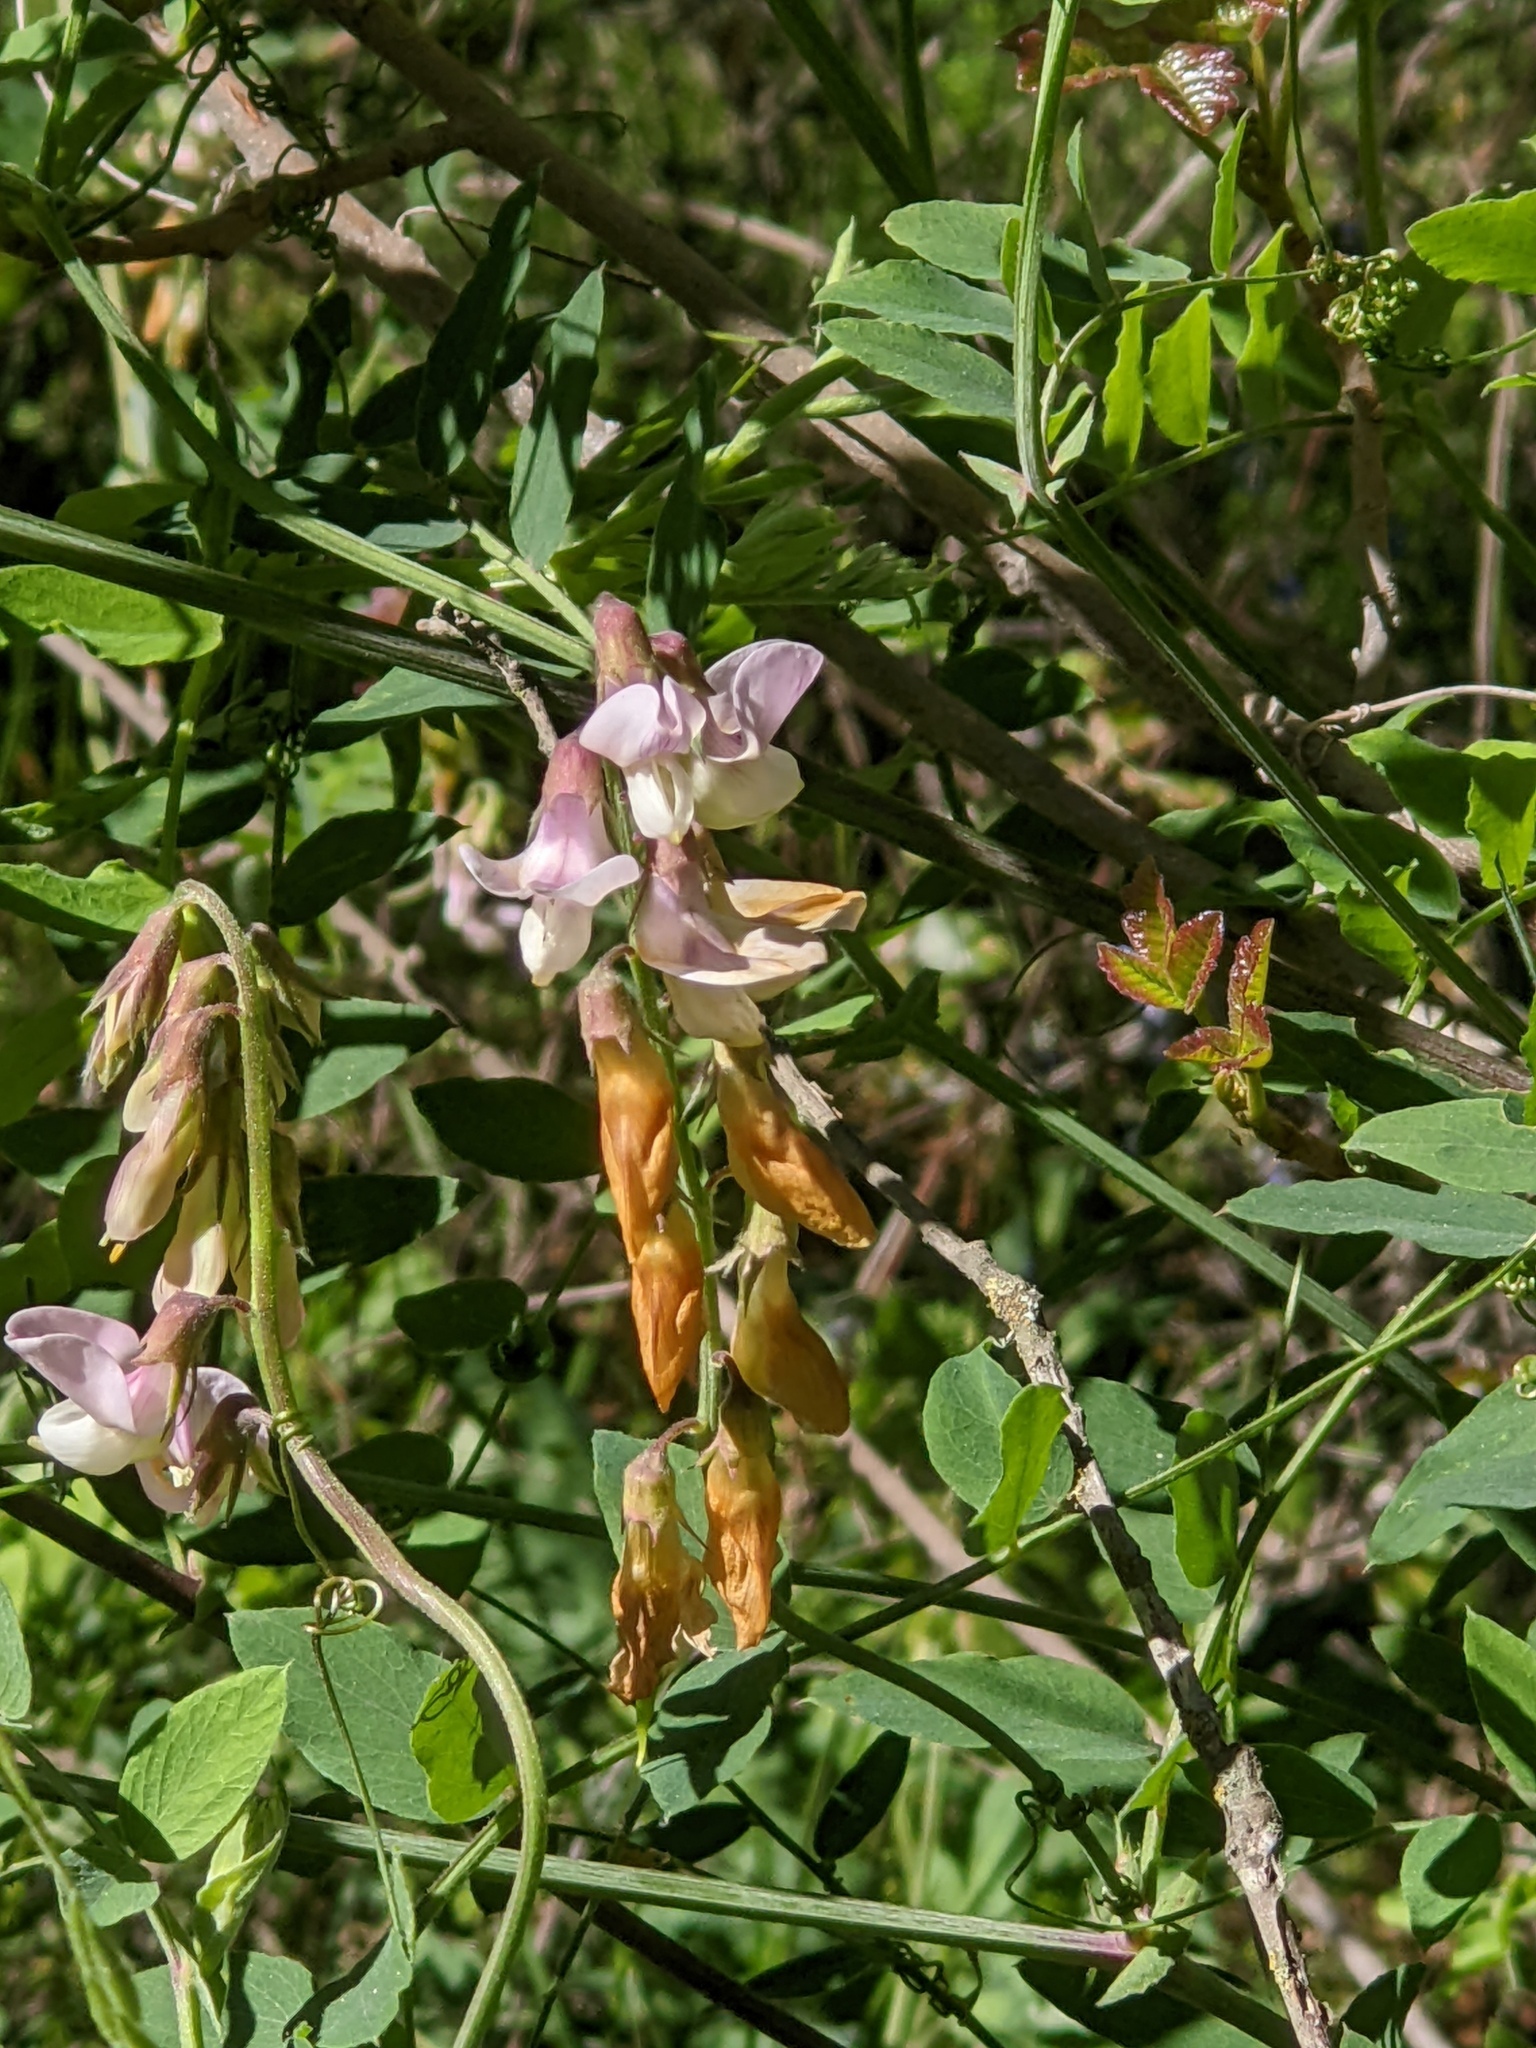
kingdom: Plantae
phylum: Tracheophyta
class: Magnoliopsida
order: Fabales
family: Fabaceae
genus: Lathyrus
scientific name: Lathyrus vestitus
